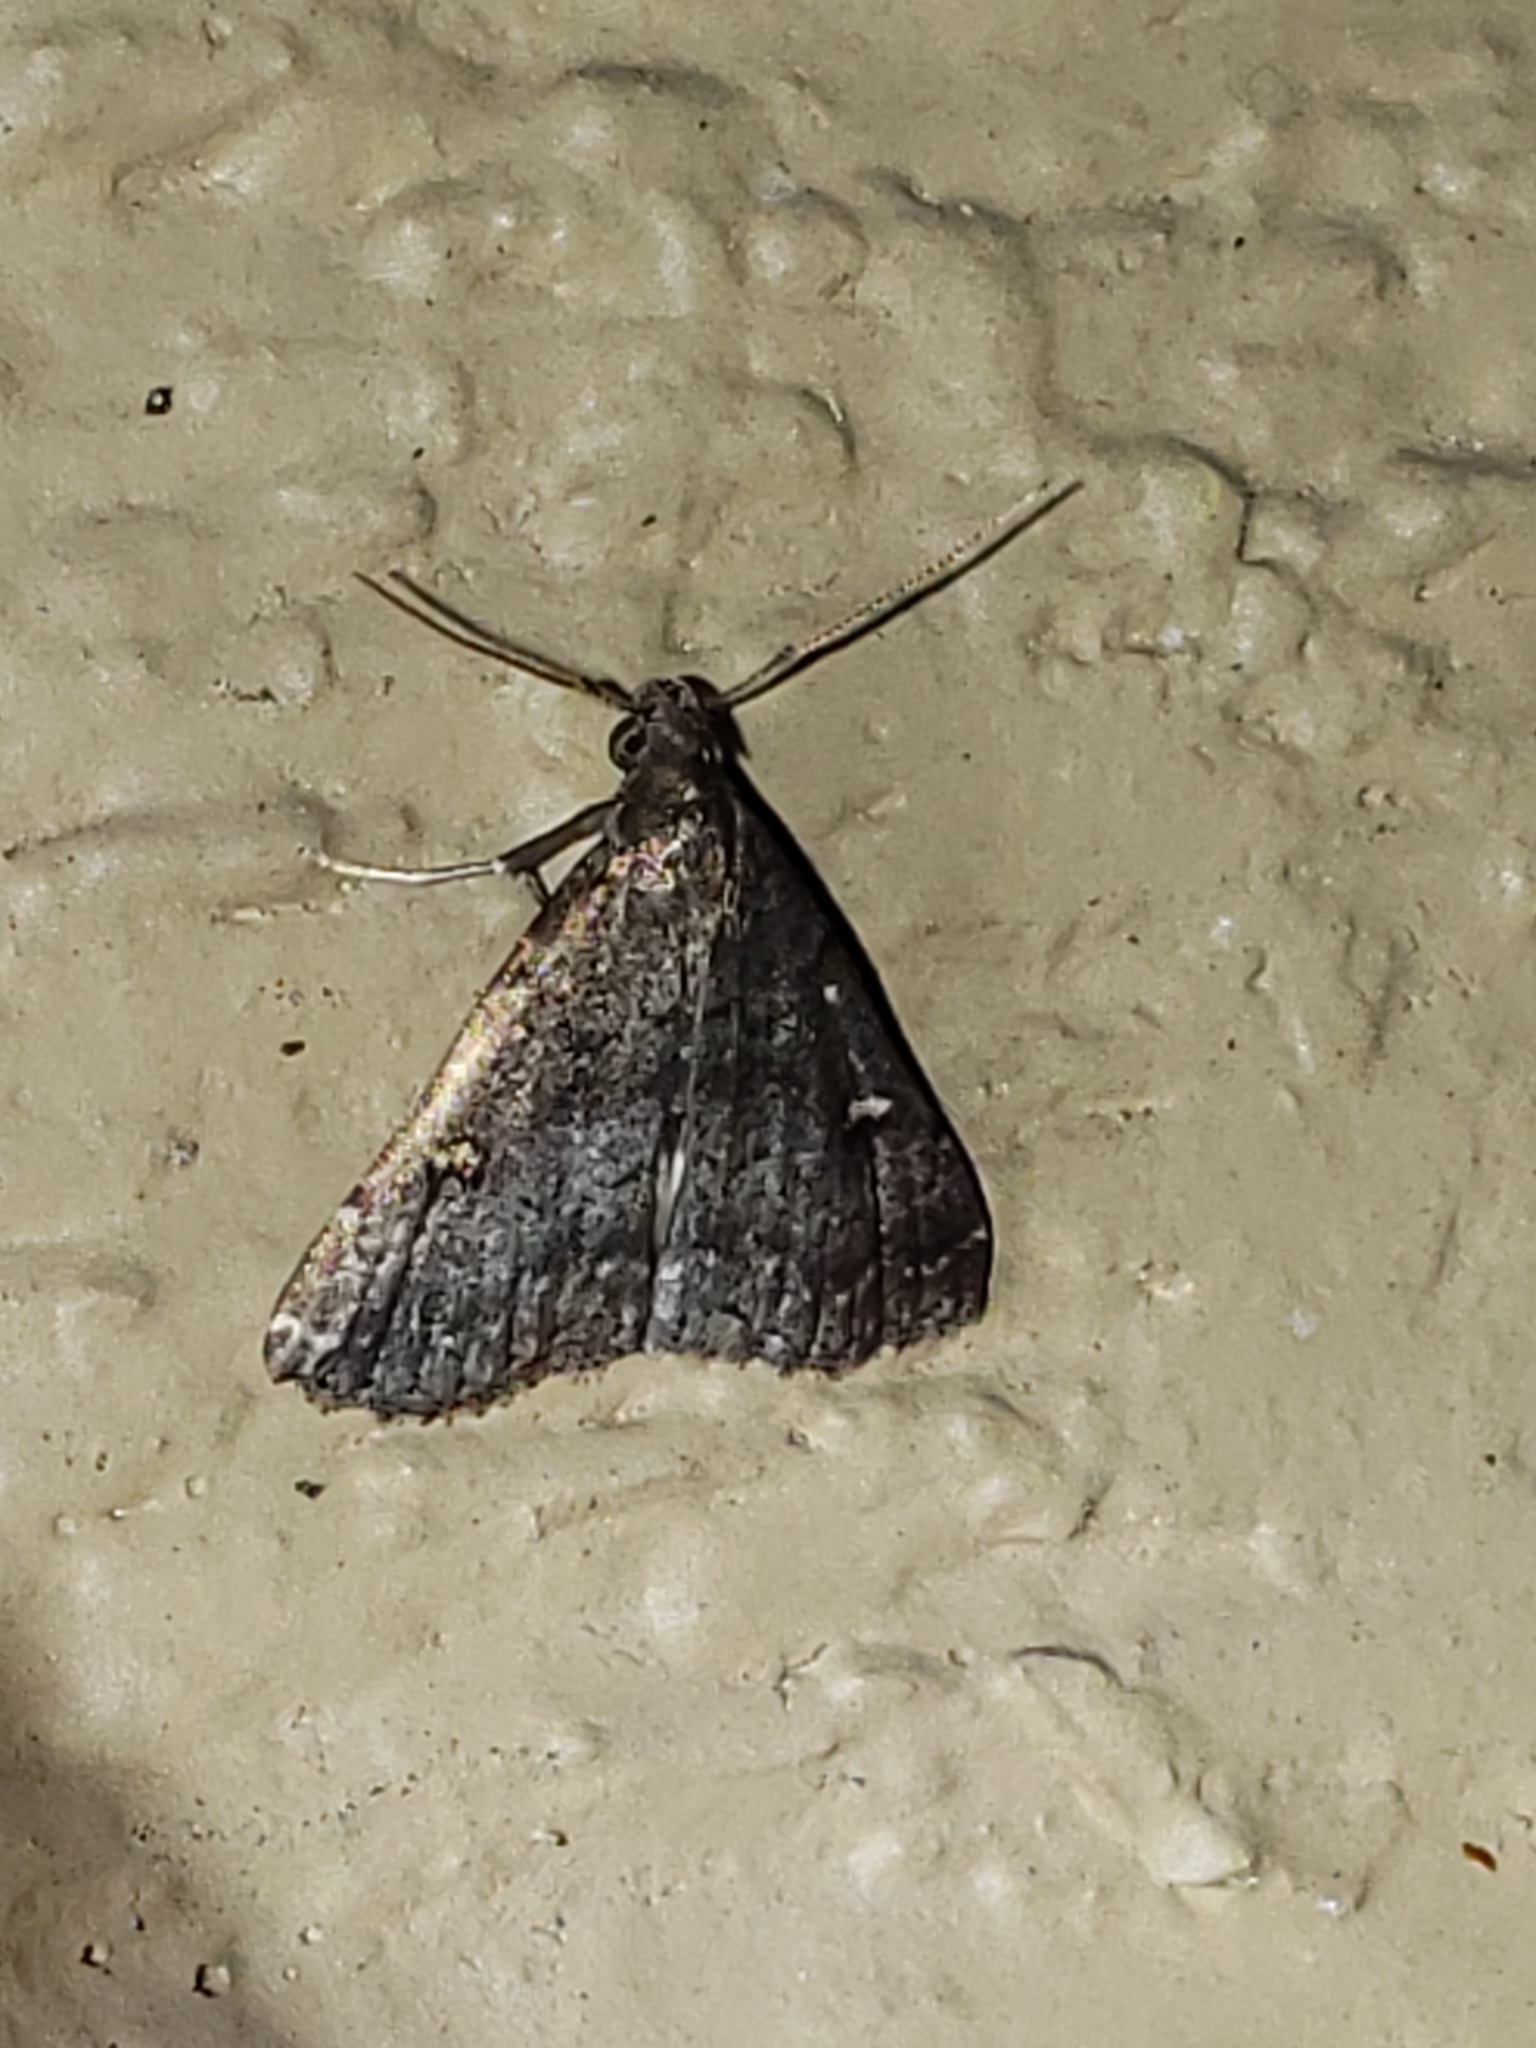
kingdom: Animalia
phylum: Arthropoda
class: Insecta
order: Lepidoptera
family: Erebidae
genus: Tetanolita
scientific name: Tetanolita mynesalis
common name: Smoky tetanolita moth
